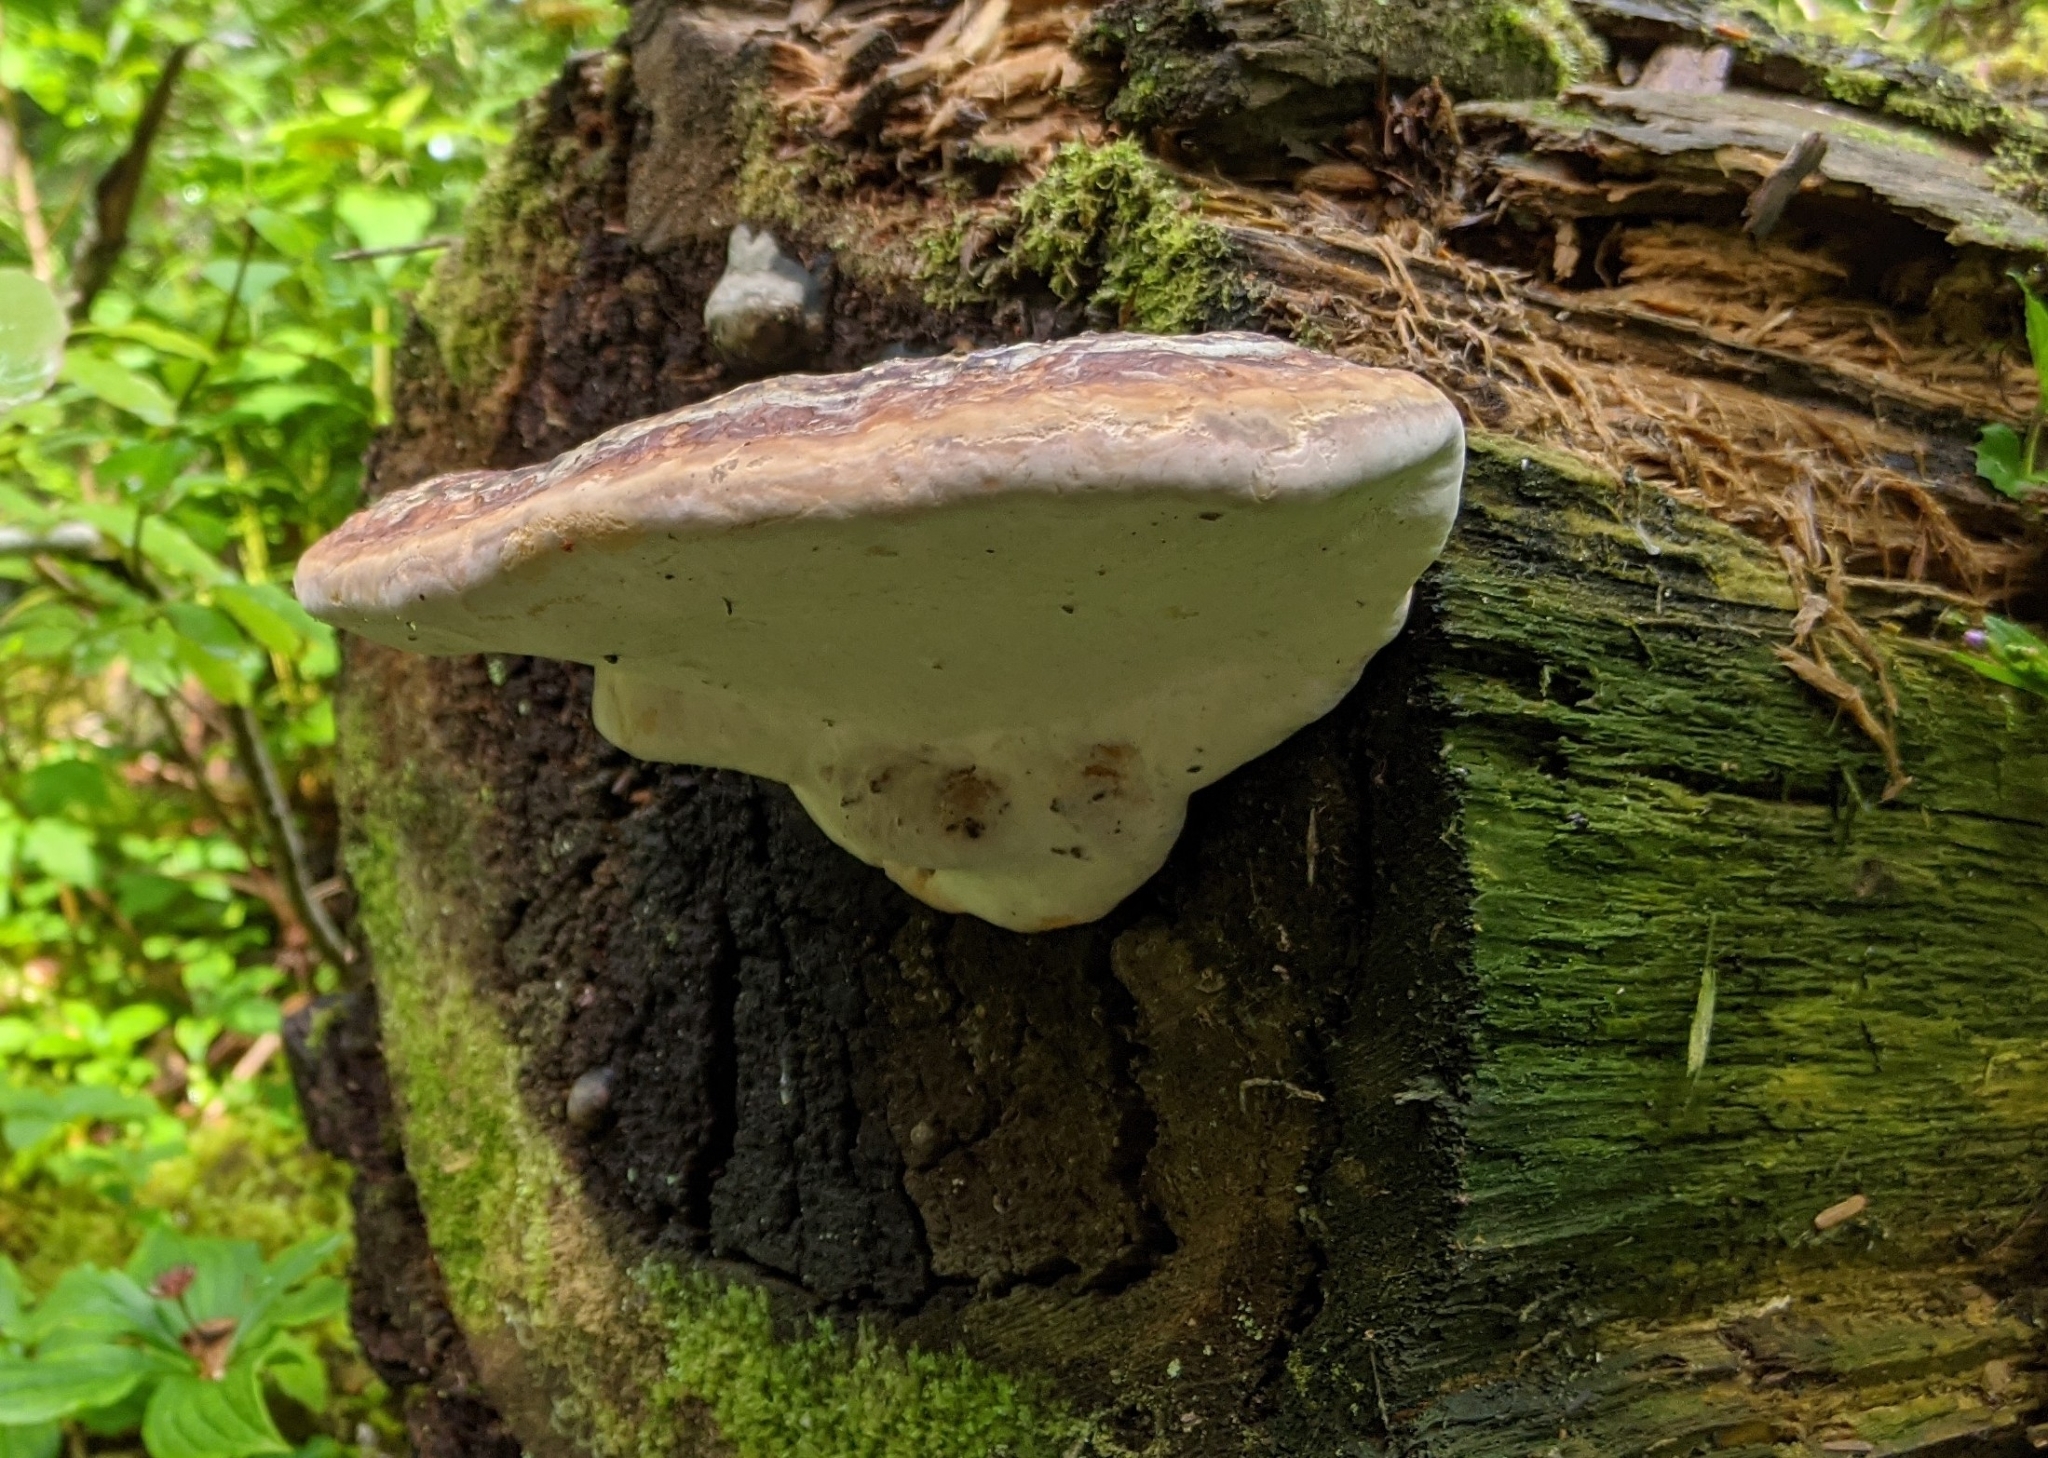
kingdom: Fungi
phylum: Basidiomycota
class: Agaricomycetes
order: Polyporales
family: Fomitopsidaceae
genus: Fomitopsis
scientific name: Fomitopsis mounceae
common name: Northern red belt
